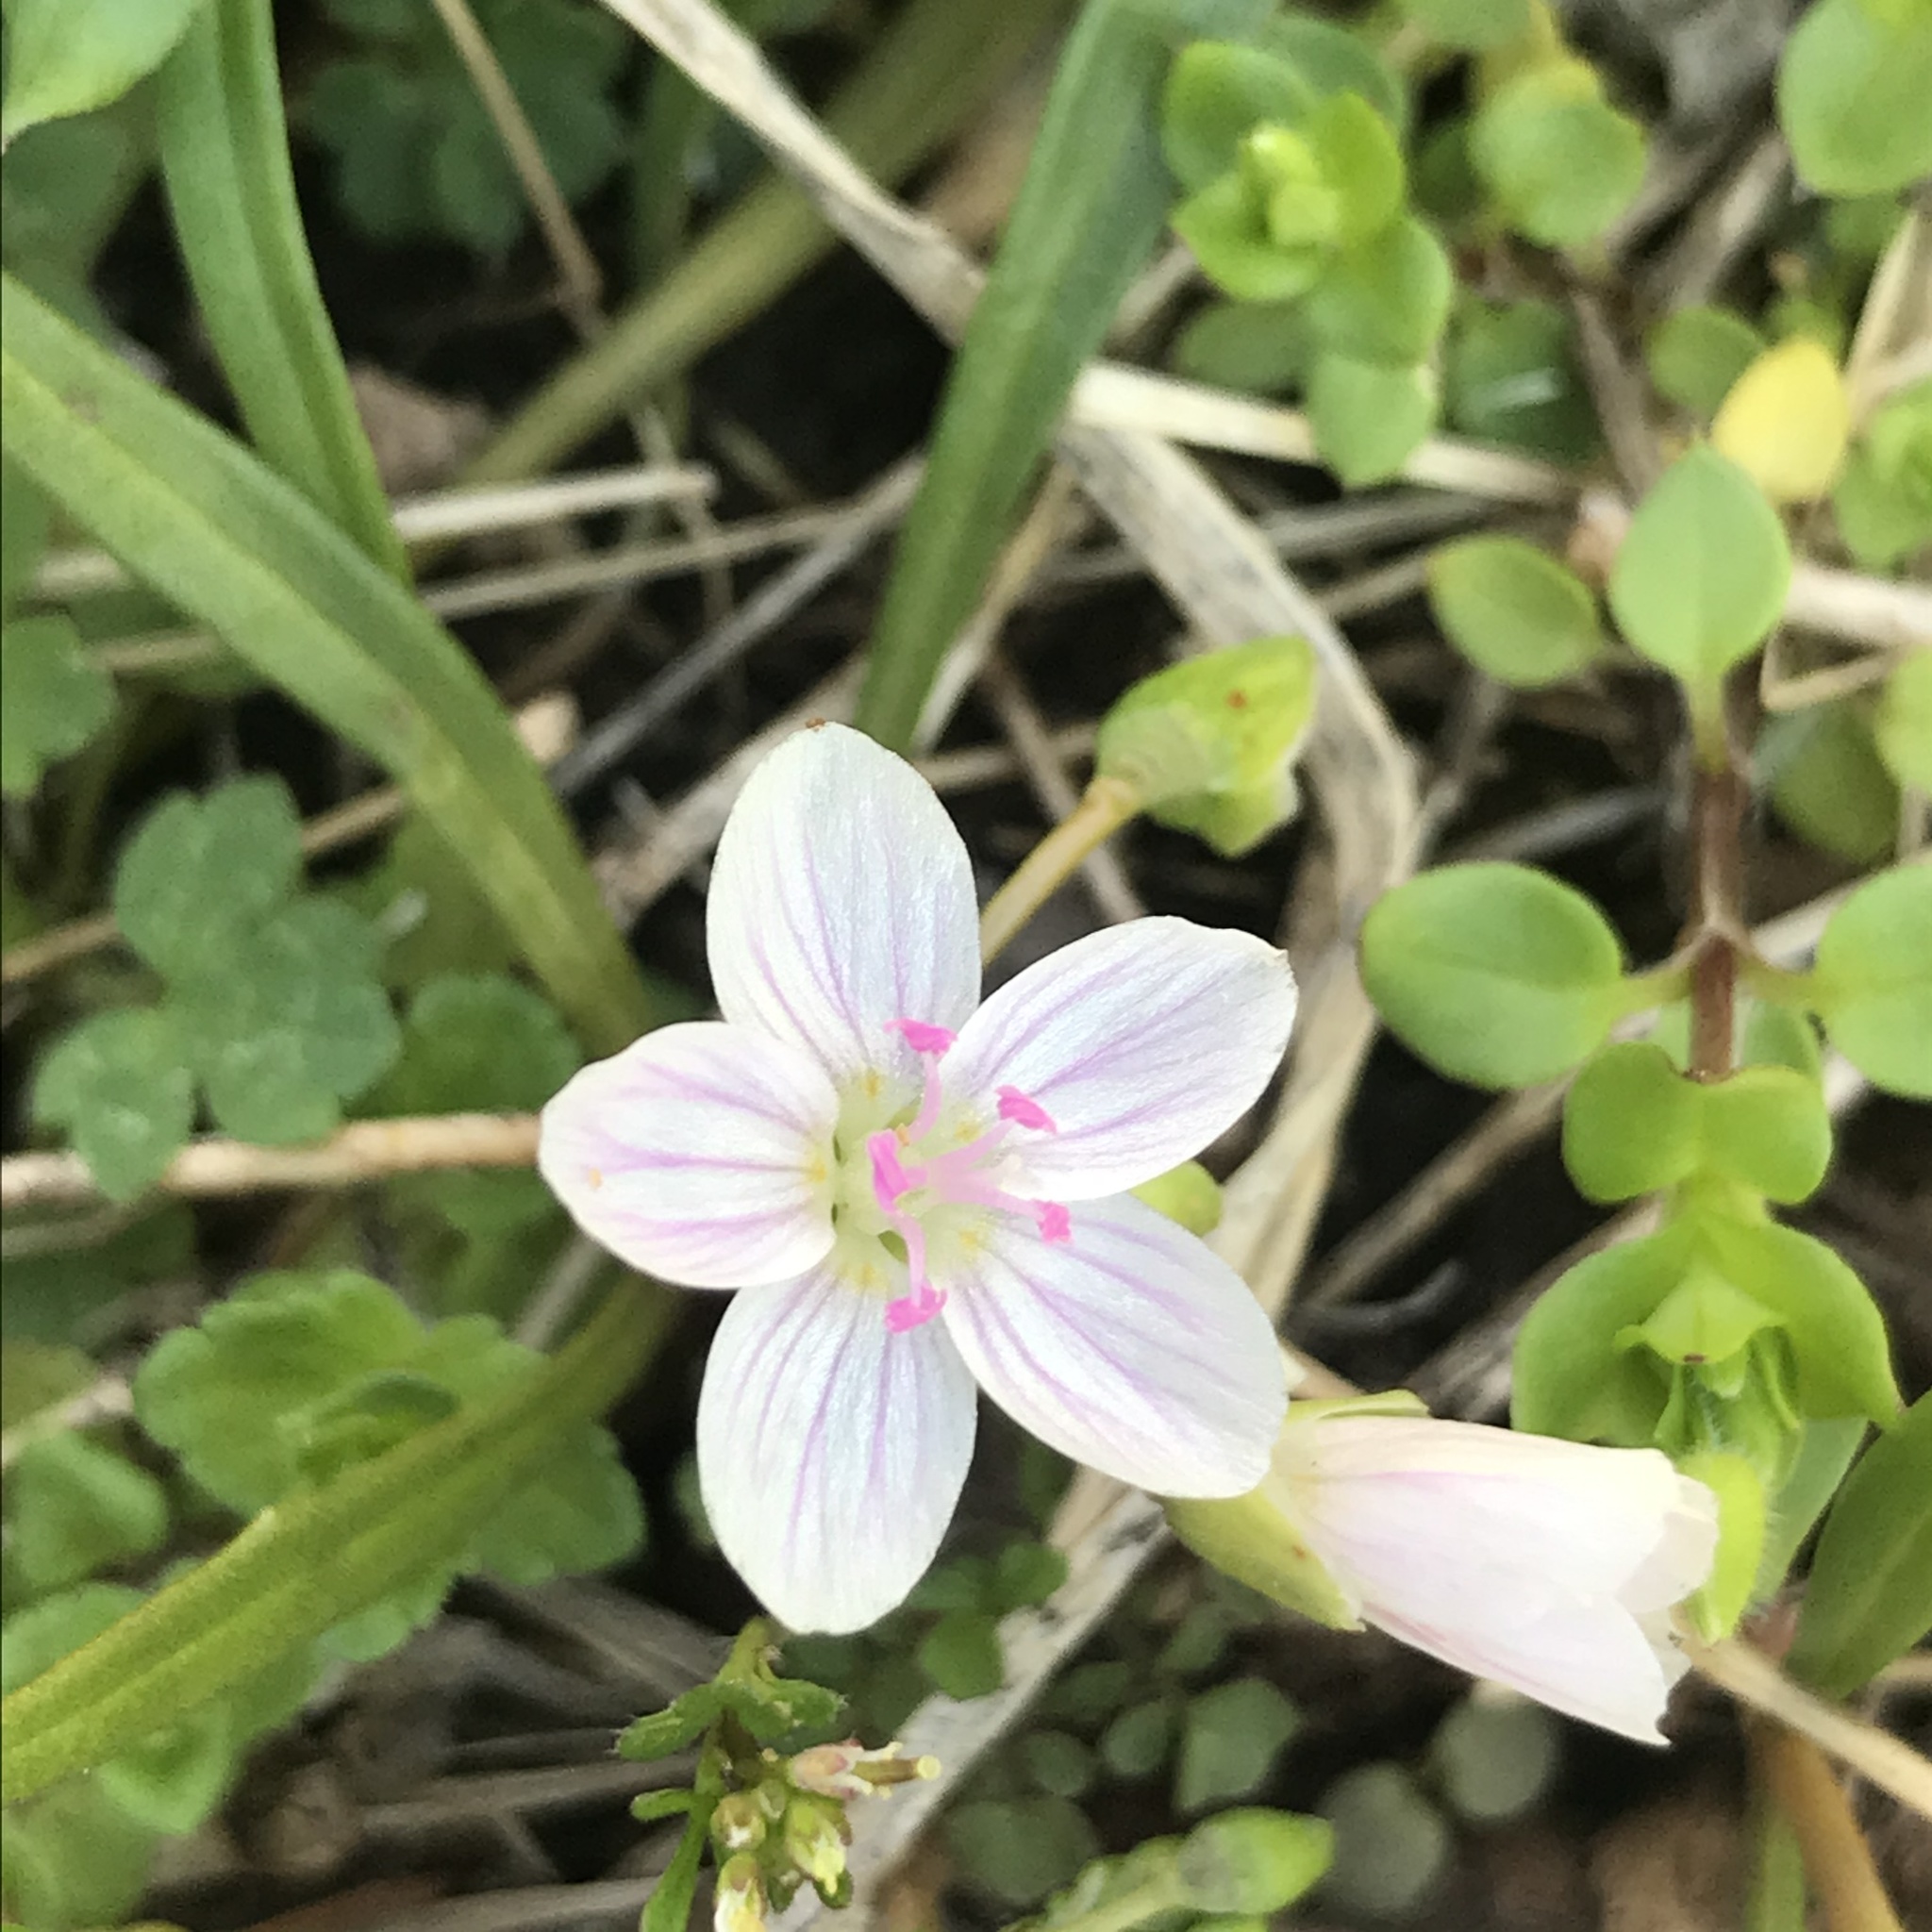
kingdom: Plantae
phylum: Tracheophyta
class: Magnoliopsida
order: Caryophyllales
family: Montiaceae
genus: Claytonia
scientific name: Claytonia virginica
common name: Virginia springbeauty
